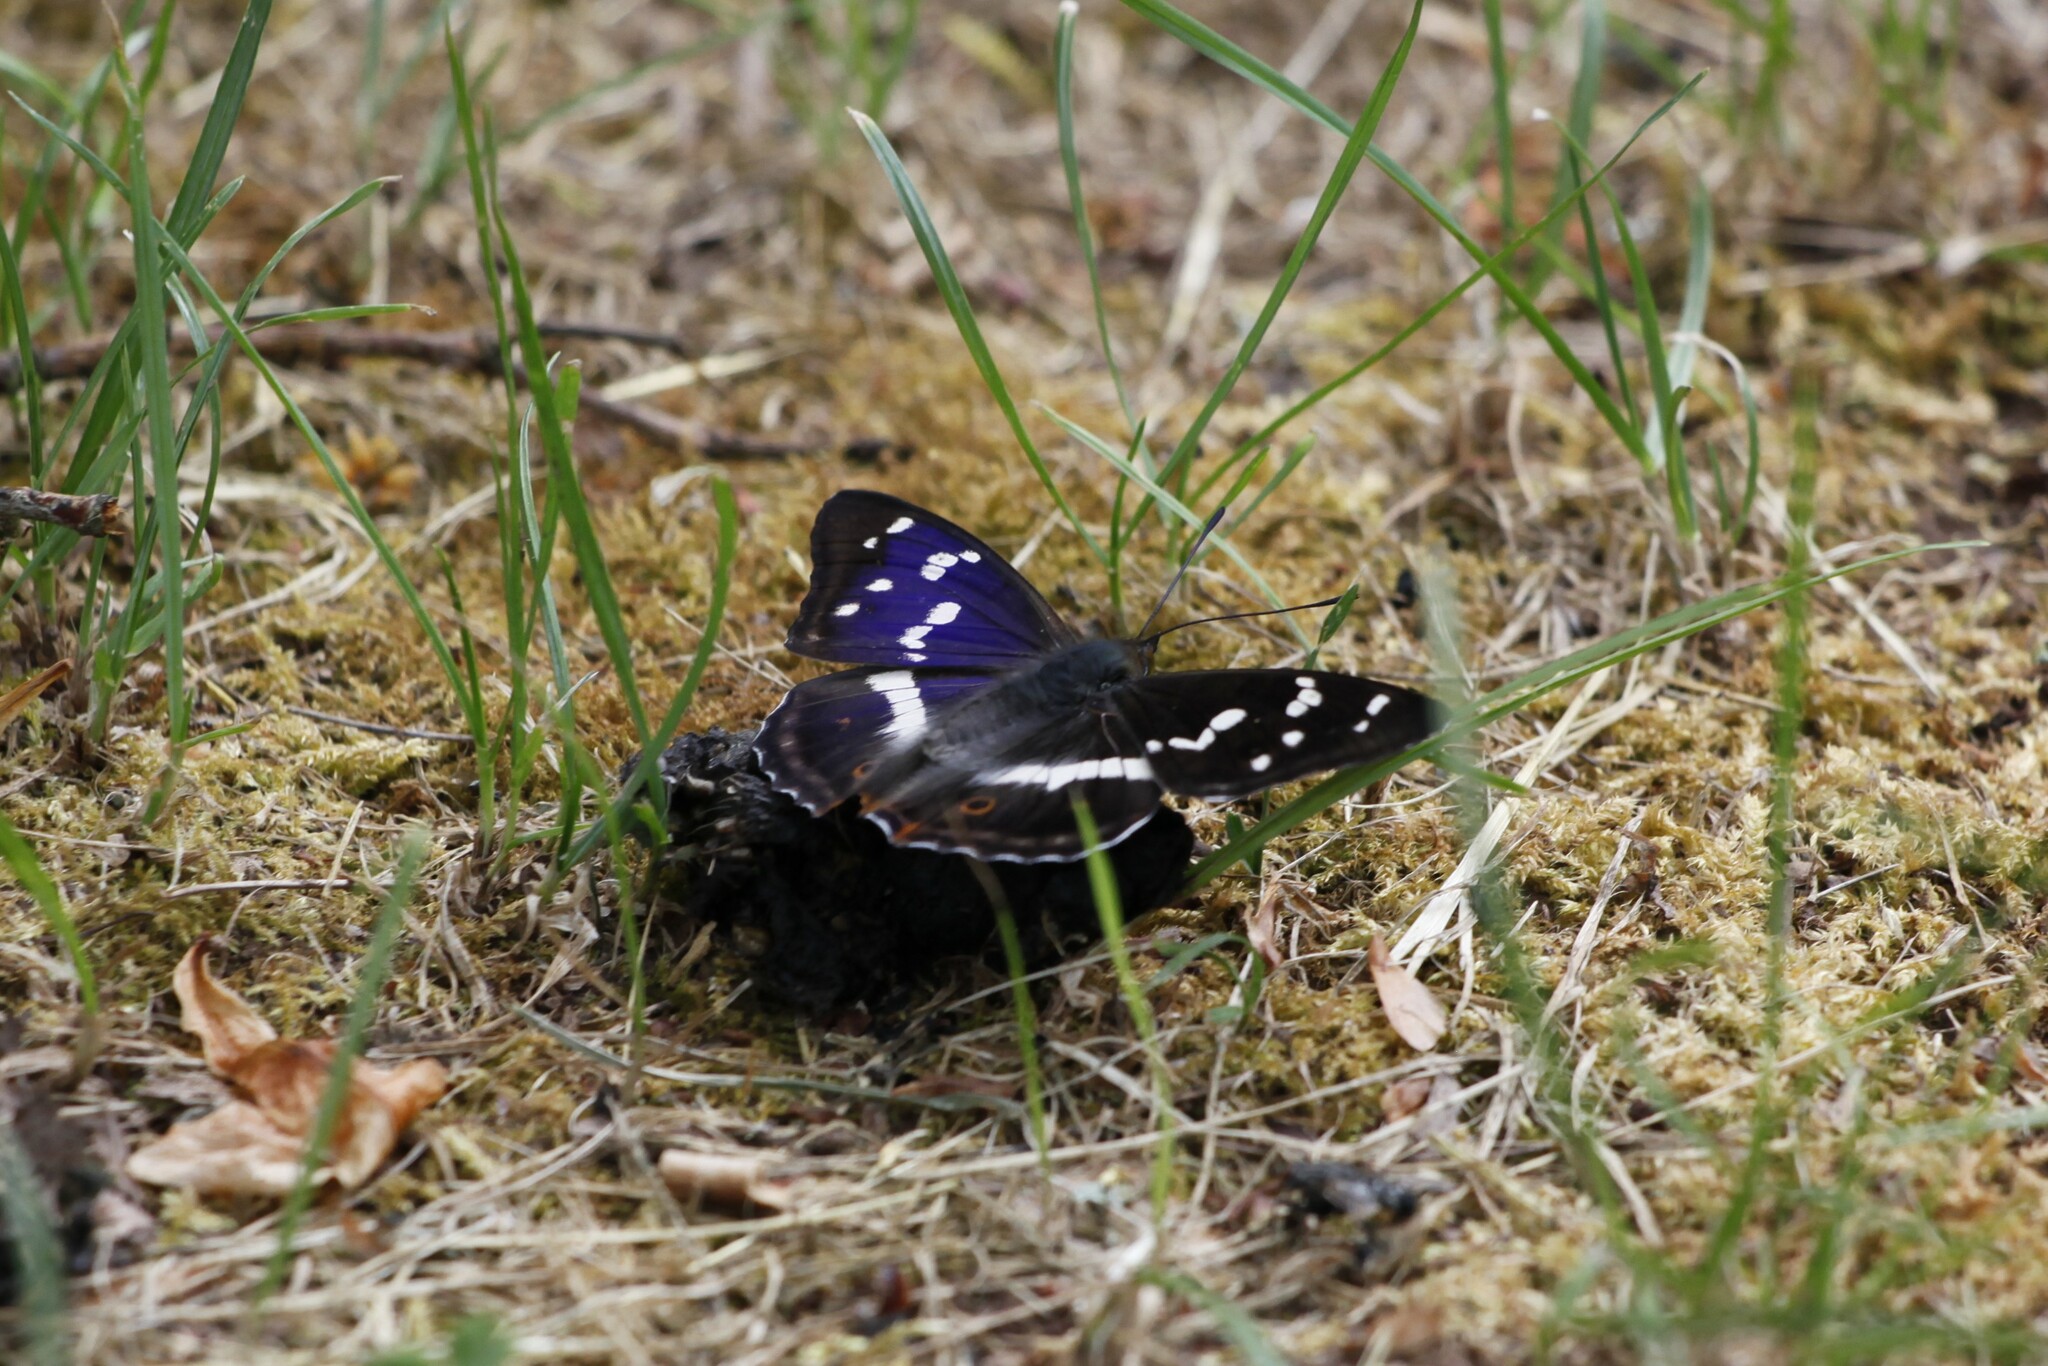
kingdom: Animalia
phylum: Arthropoda
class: Insecta
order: Lepidoptera
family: Nymphalidae
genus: Apatura
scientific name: Apatura iris
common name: Purple emperor
